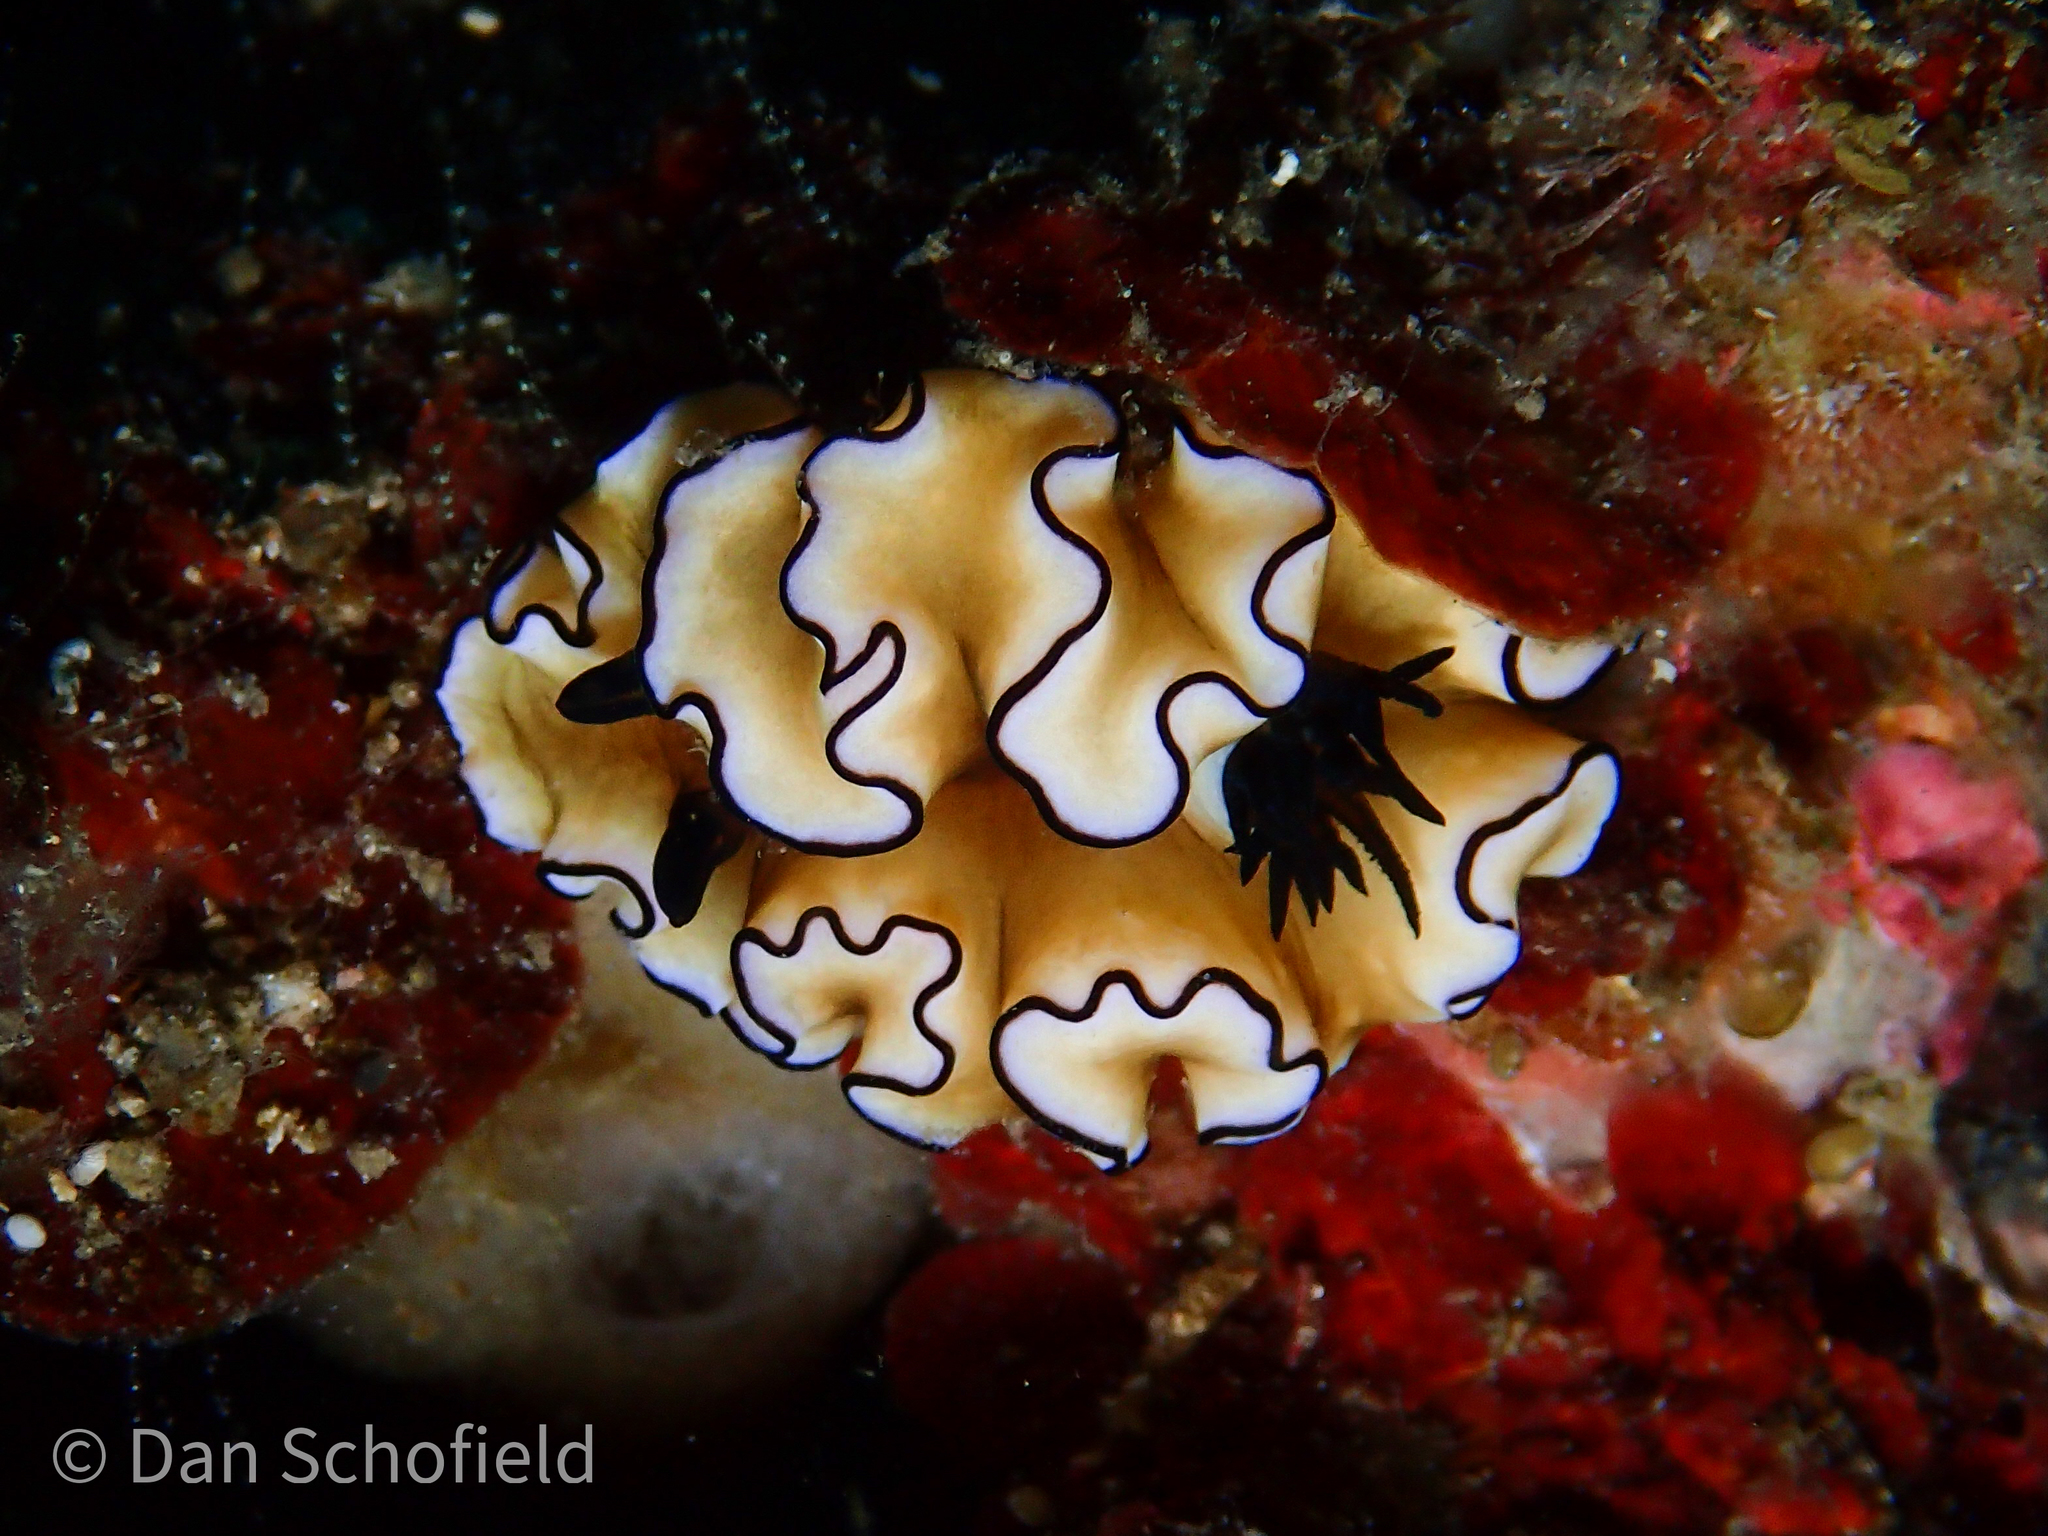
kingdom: Animalia
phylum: Mollusca
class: Gastropoda
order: Nudibranchia
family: Chromodorididae
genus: Doriprismatica
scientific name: Doriprismatica atromarginata
